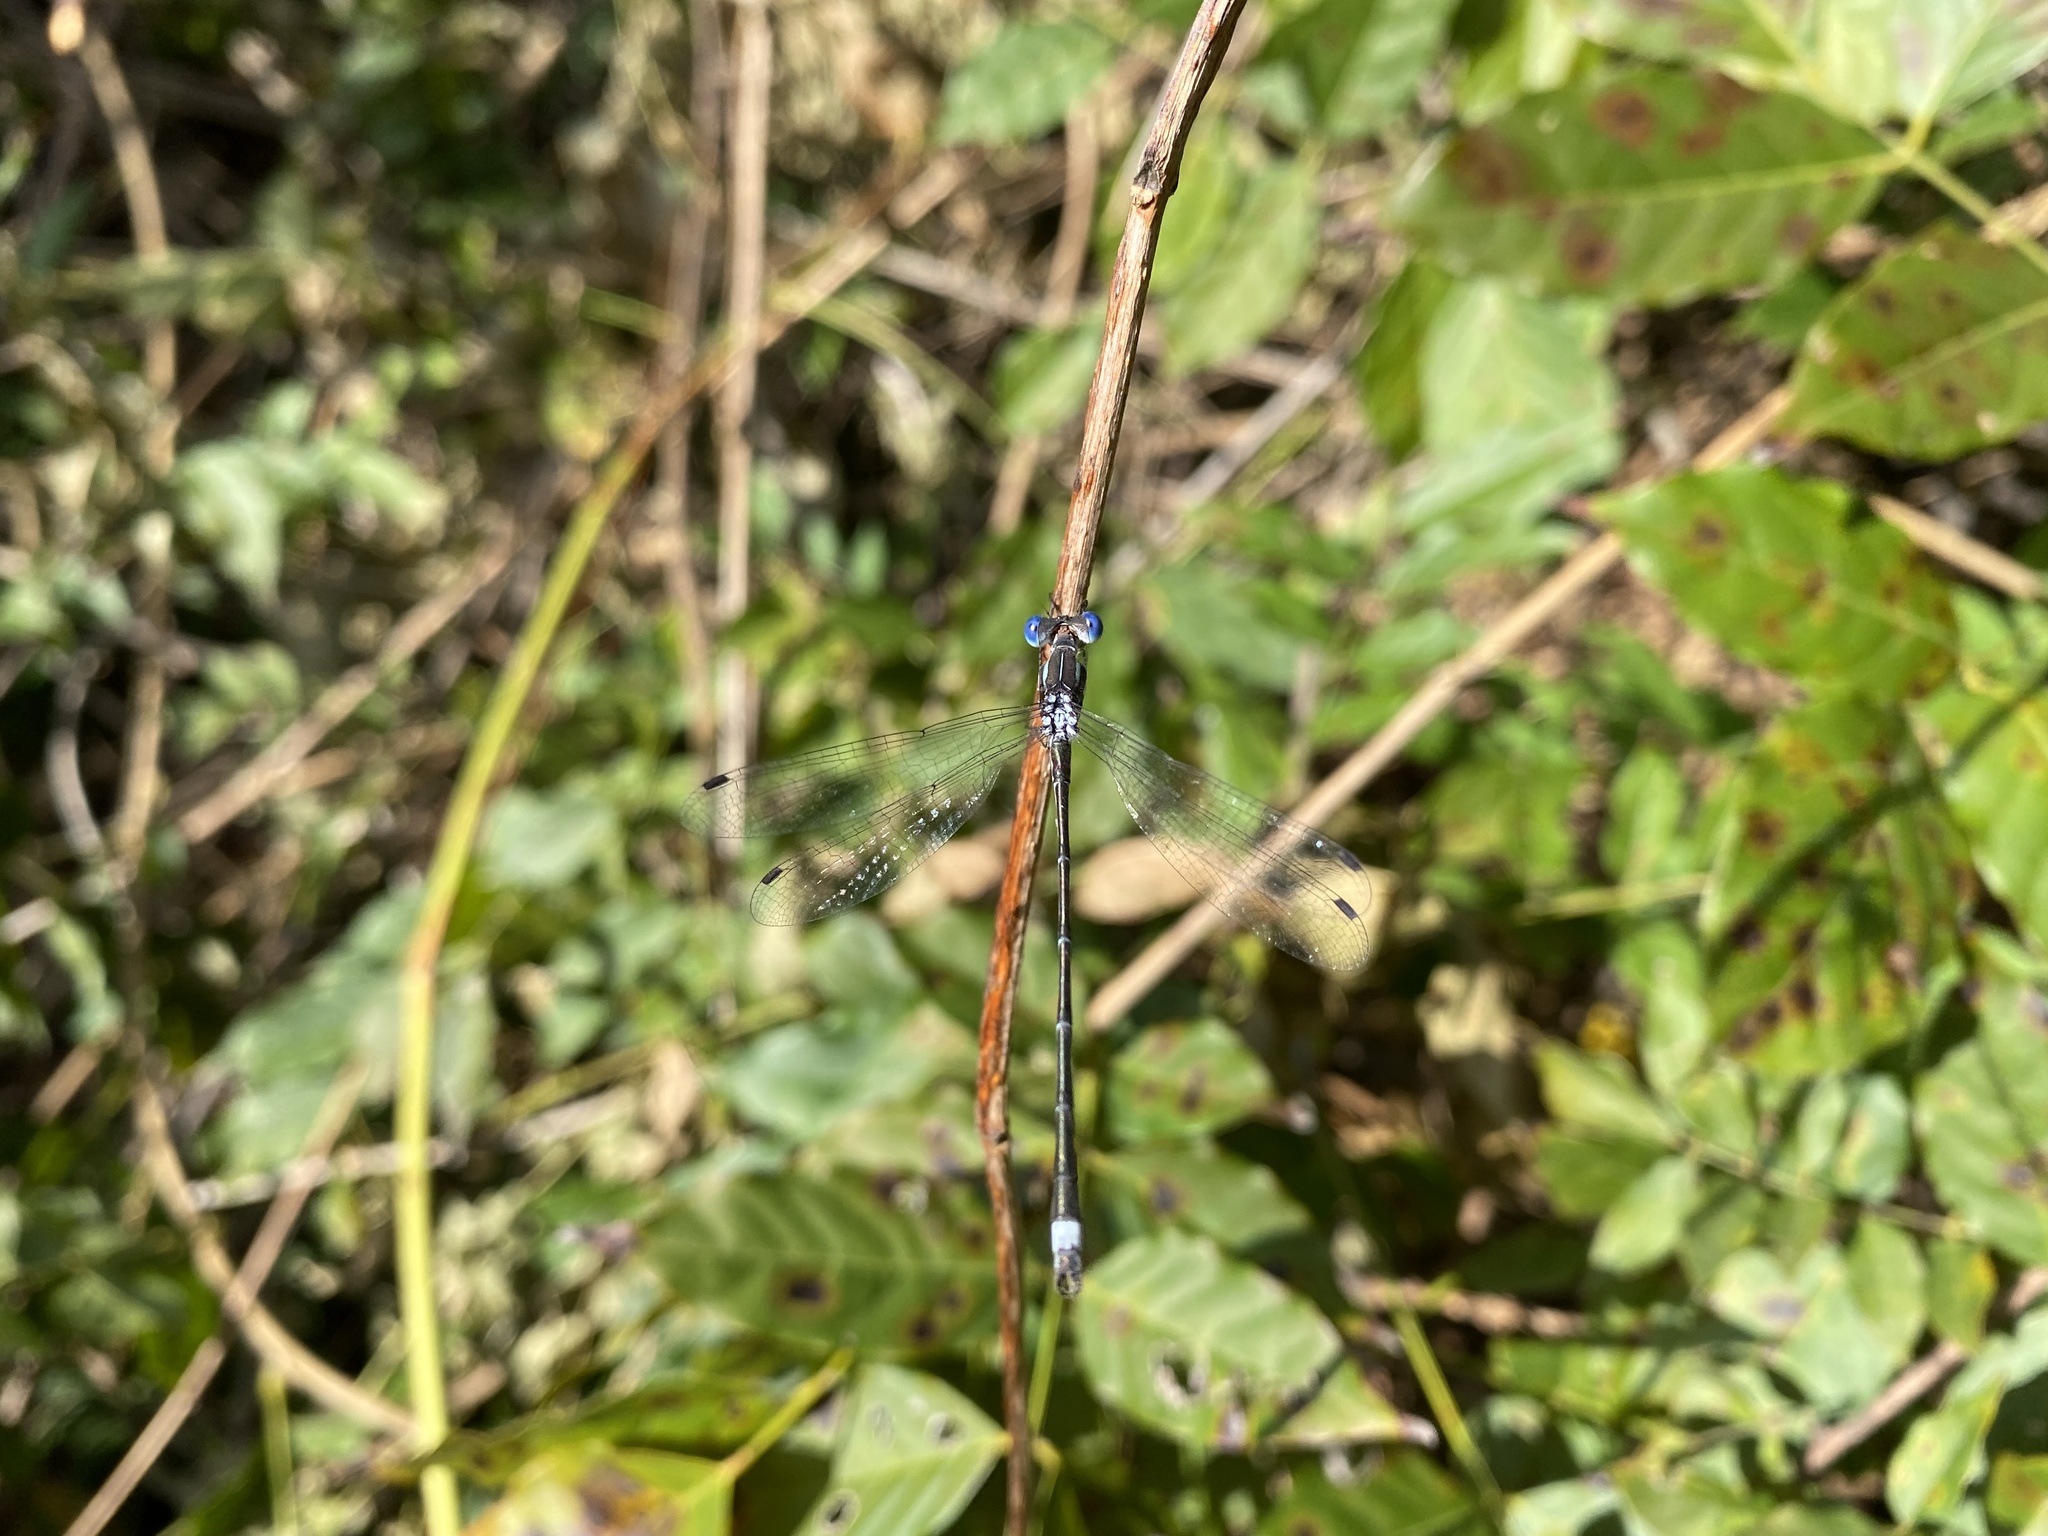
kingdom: Animalia
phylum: Arthropoda
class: Insecta
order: Odonata
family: Lestidae
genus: Lestes
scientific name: Lestes australis
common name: Southern spreadwing
